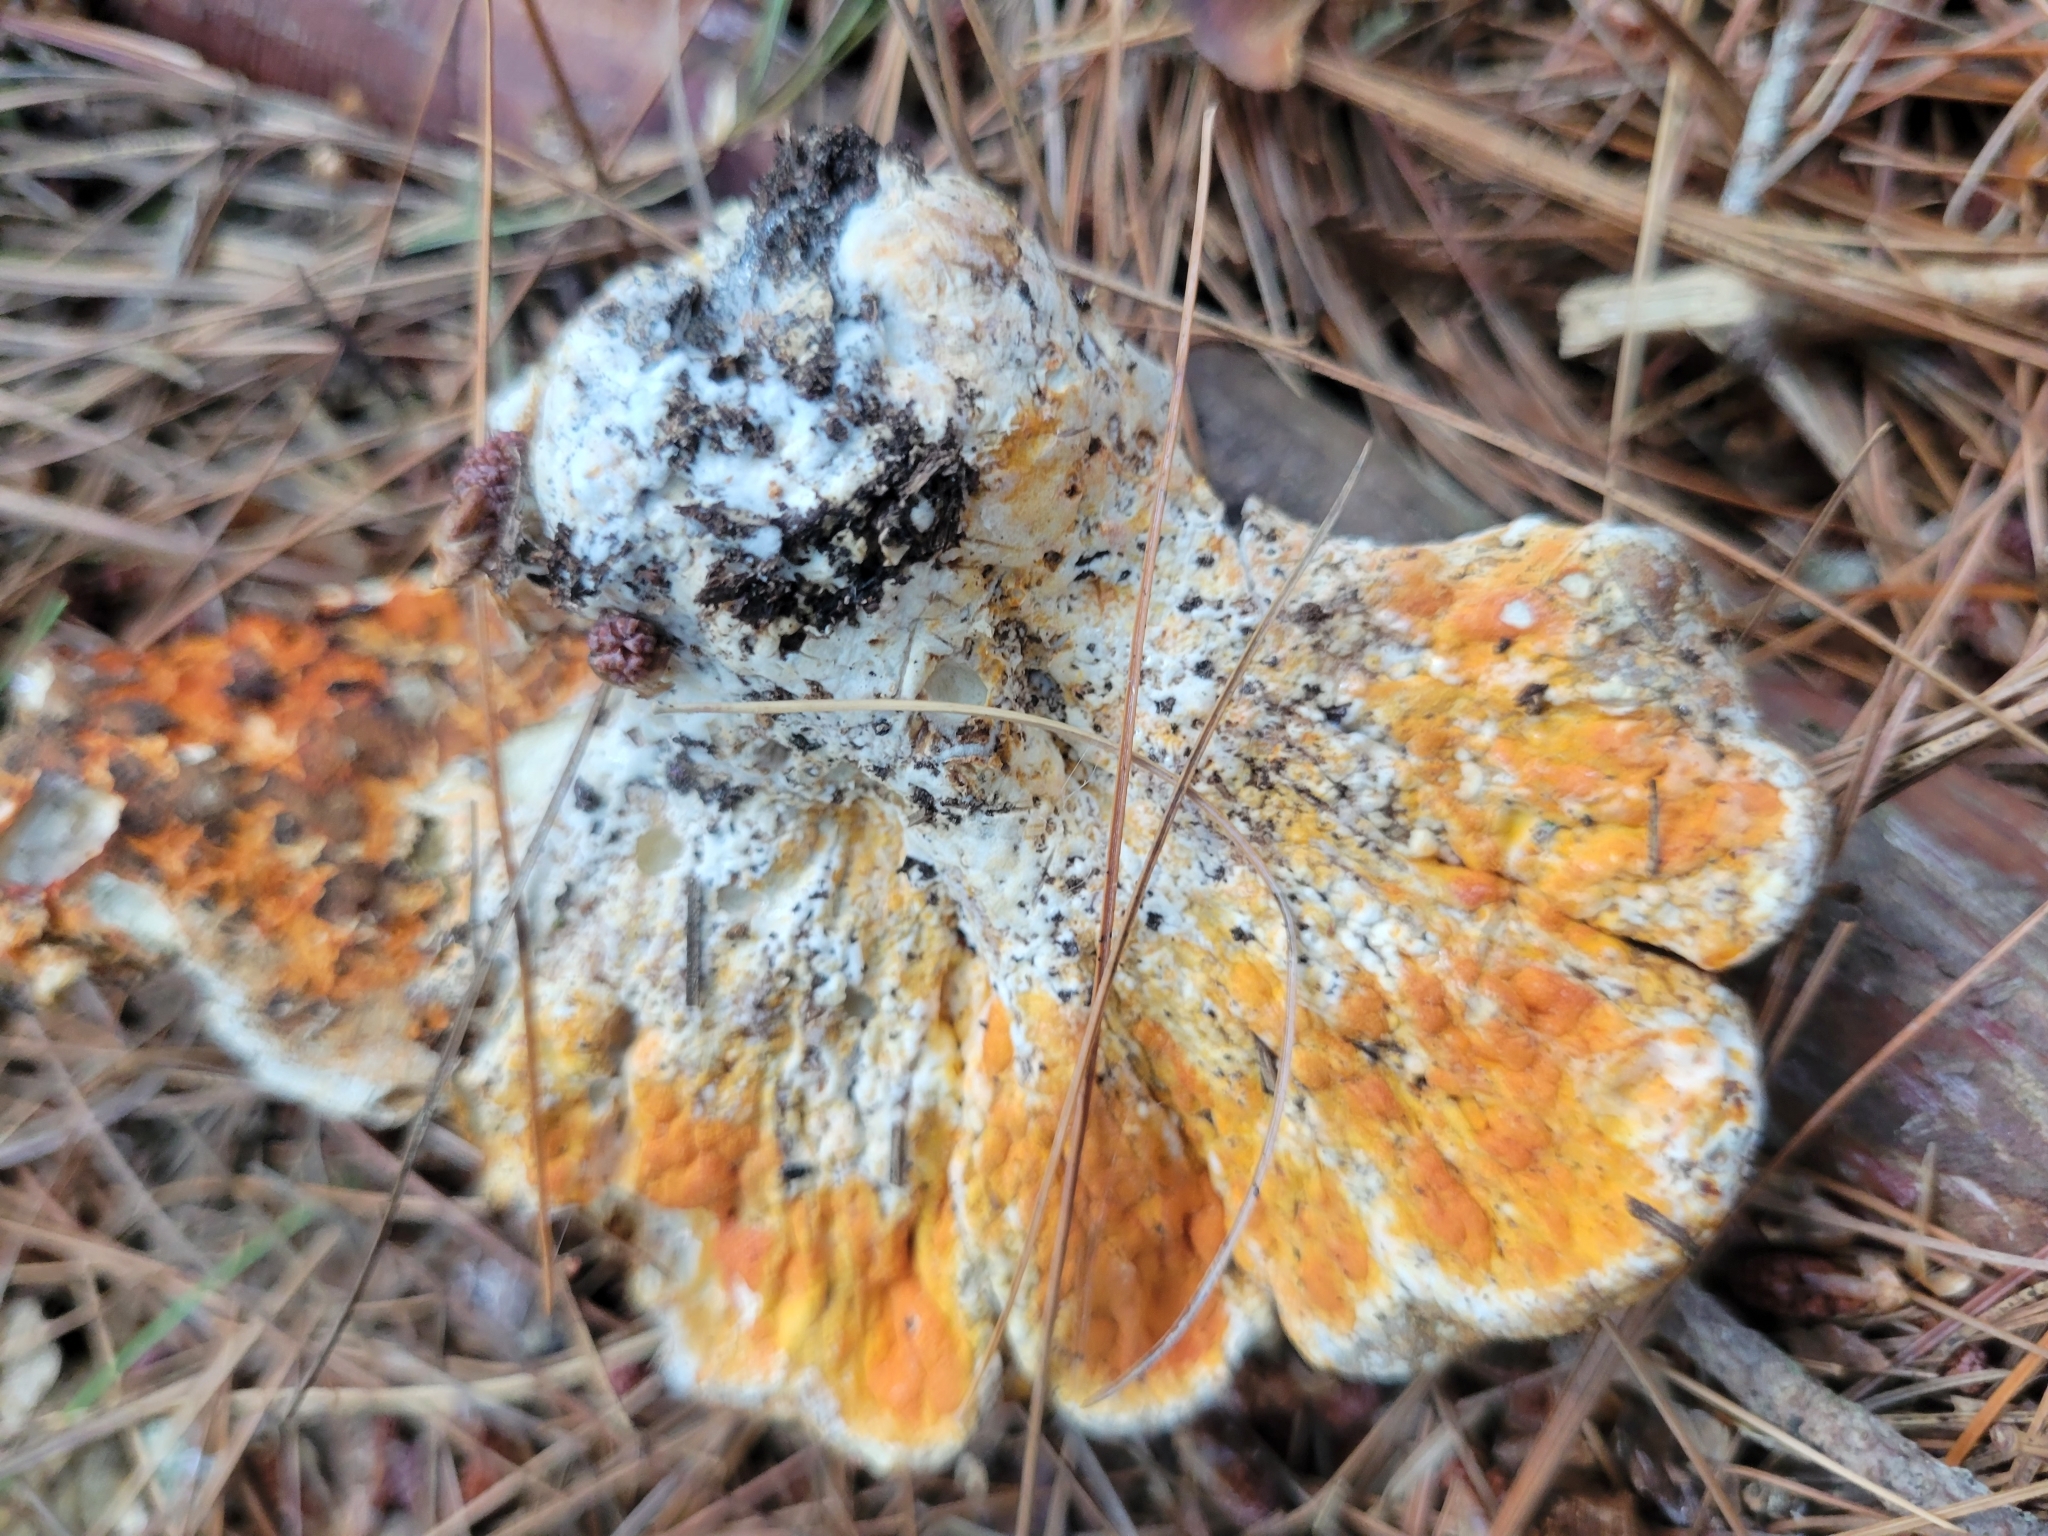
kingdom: Fungi
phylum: Ascomycota
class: Sordariomycetes
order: Hypocreales
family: Hypocreaceae
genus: Hypomyces
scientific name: Hypomyces lactifluorum
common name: Lobster mushroom
